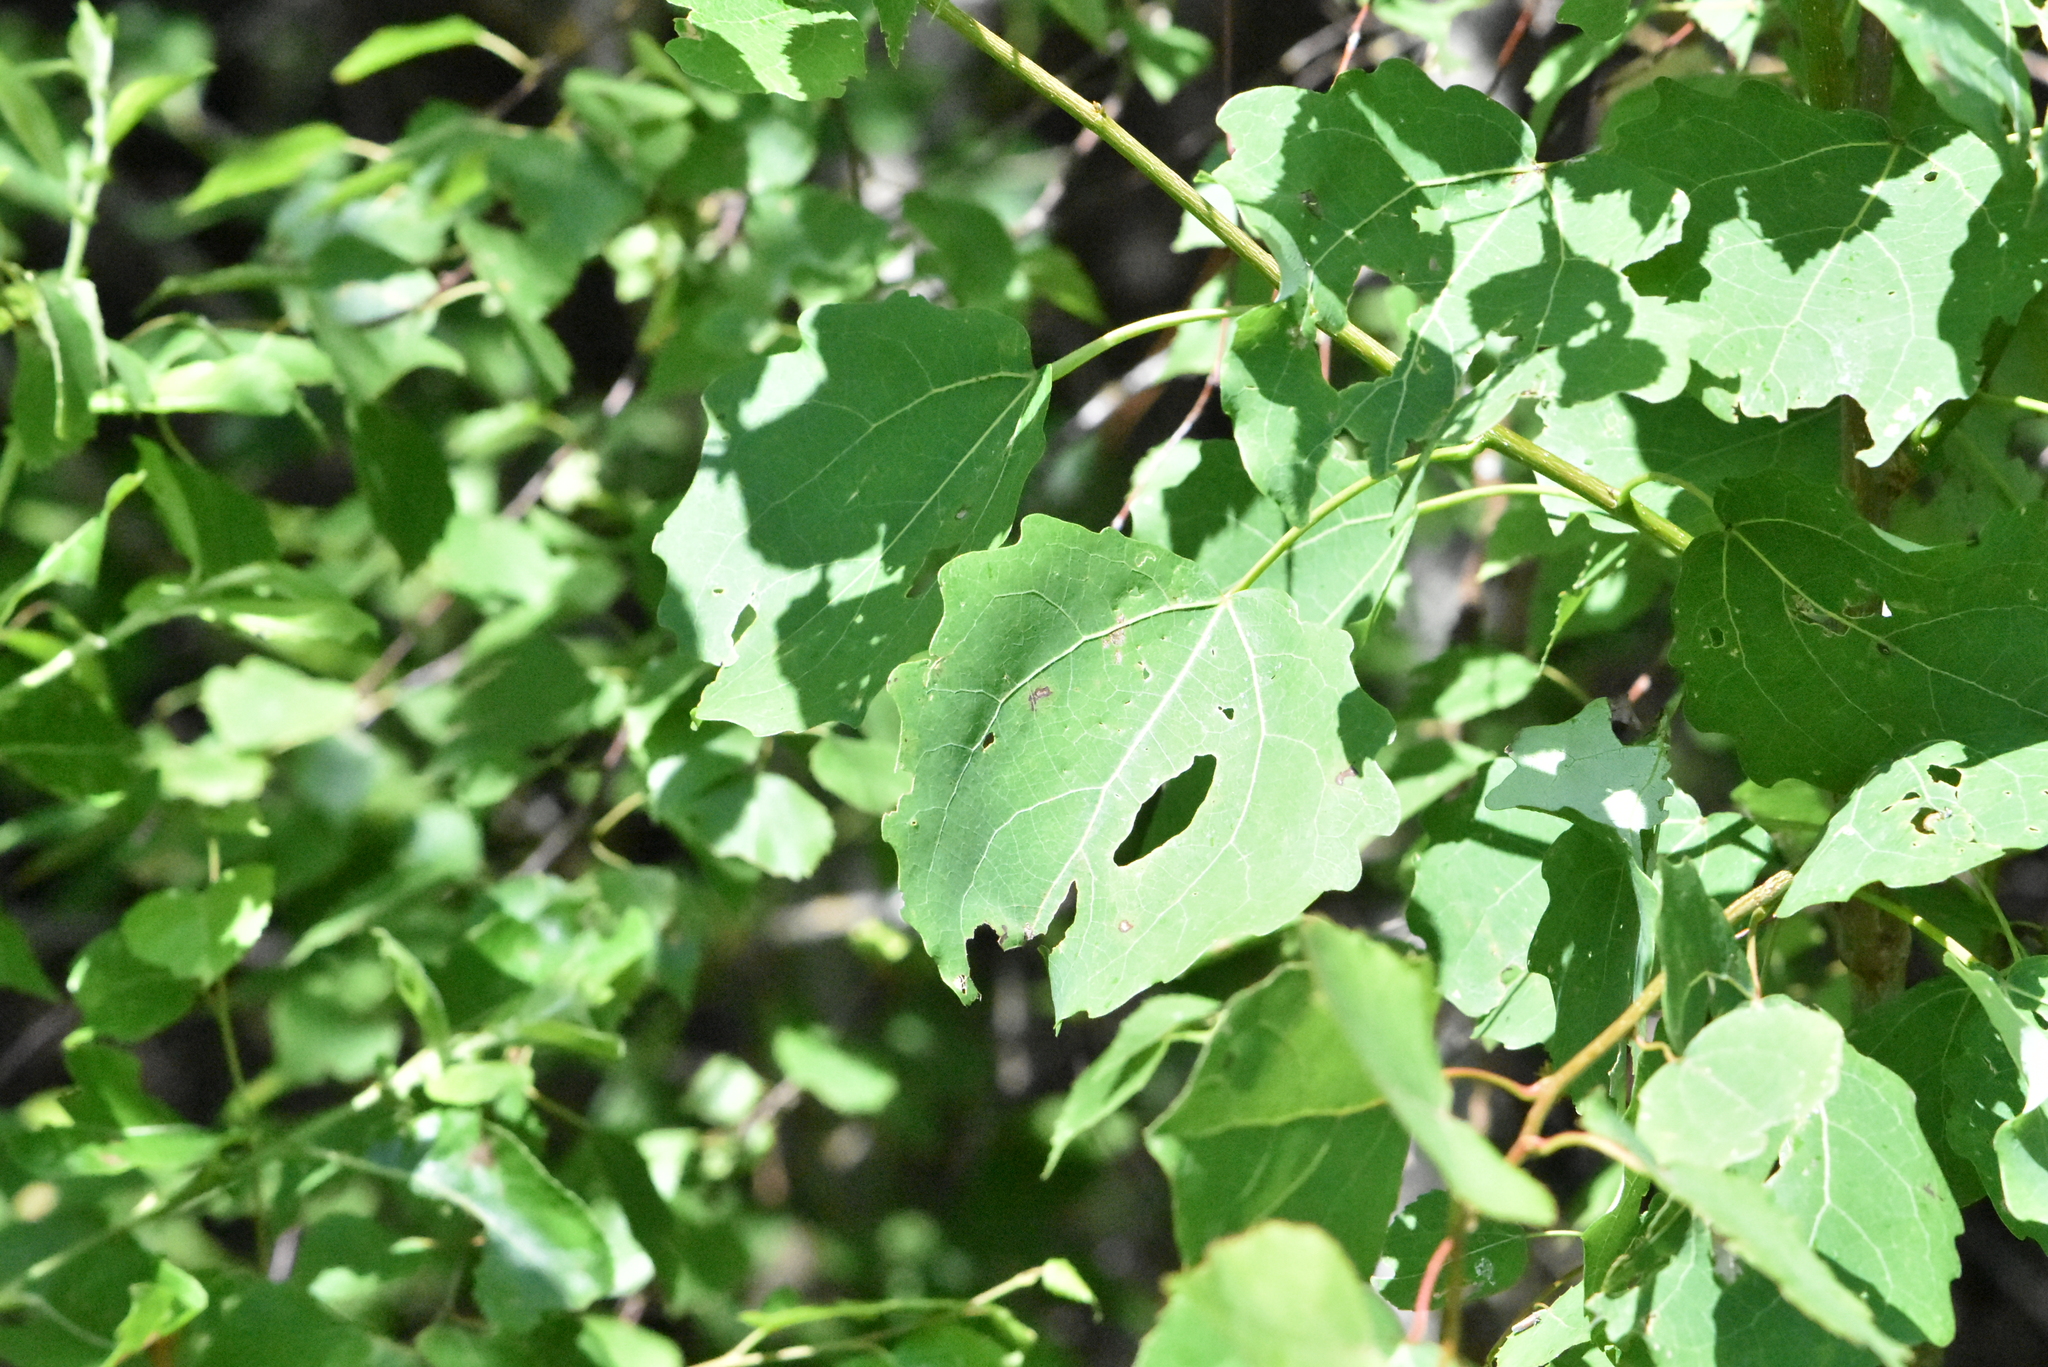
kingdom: Plantae
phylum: Tracheophyta
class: Magnoliopsida
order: Malpighiales
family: Salicaceae
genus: Populus
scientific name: Populus tremula
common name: European aspen
